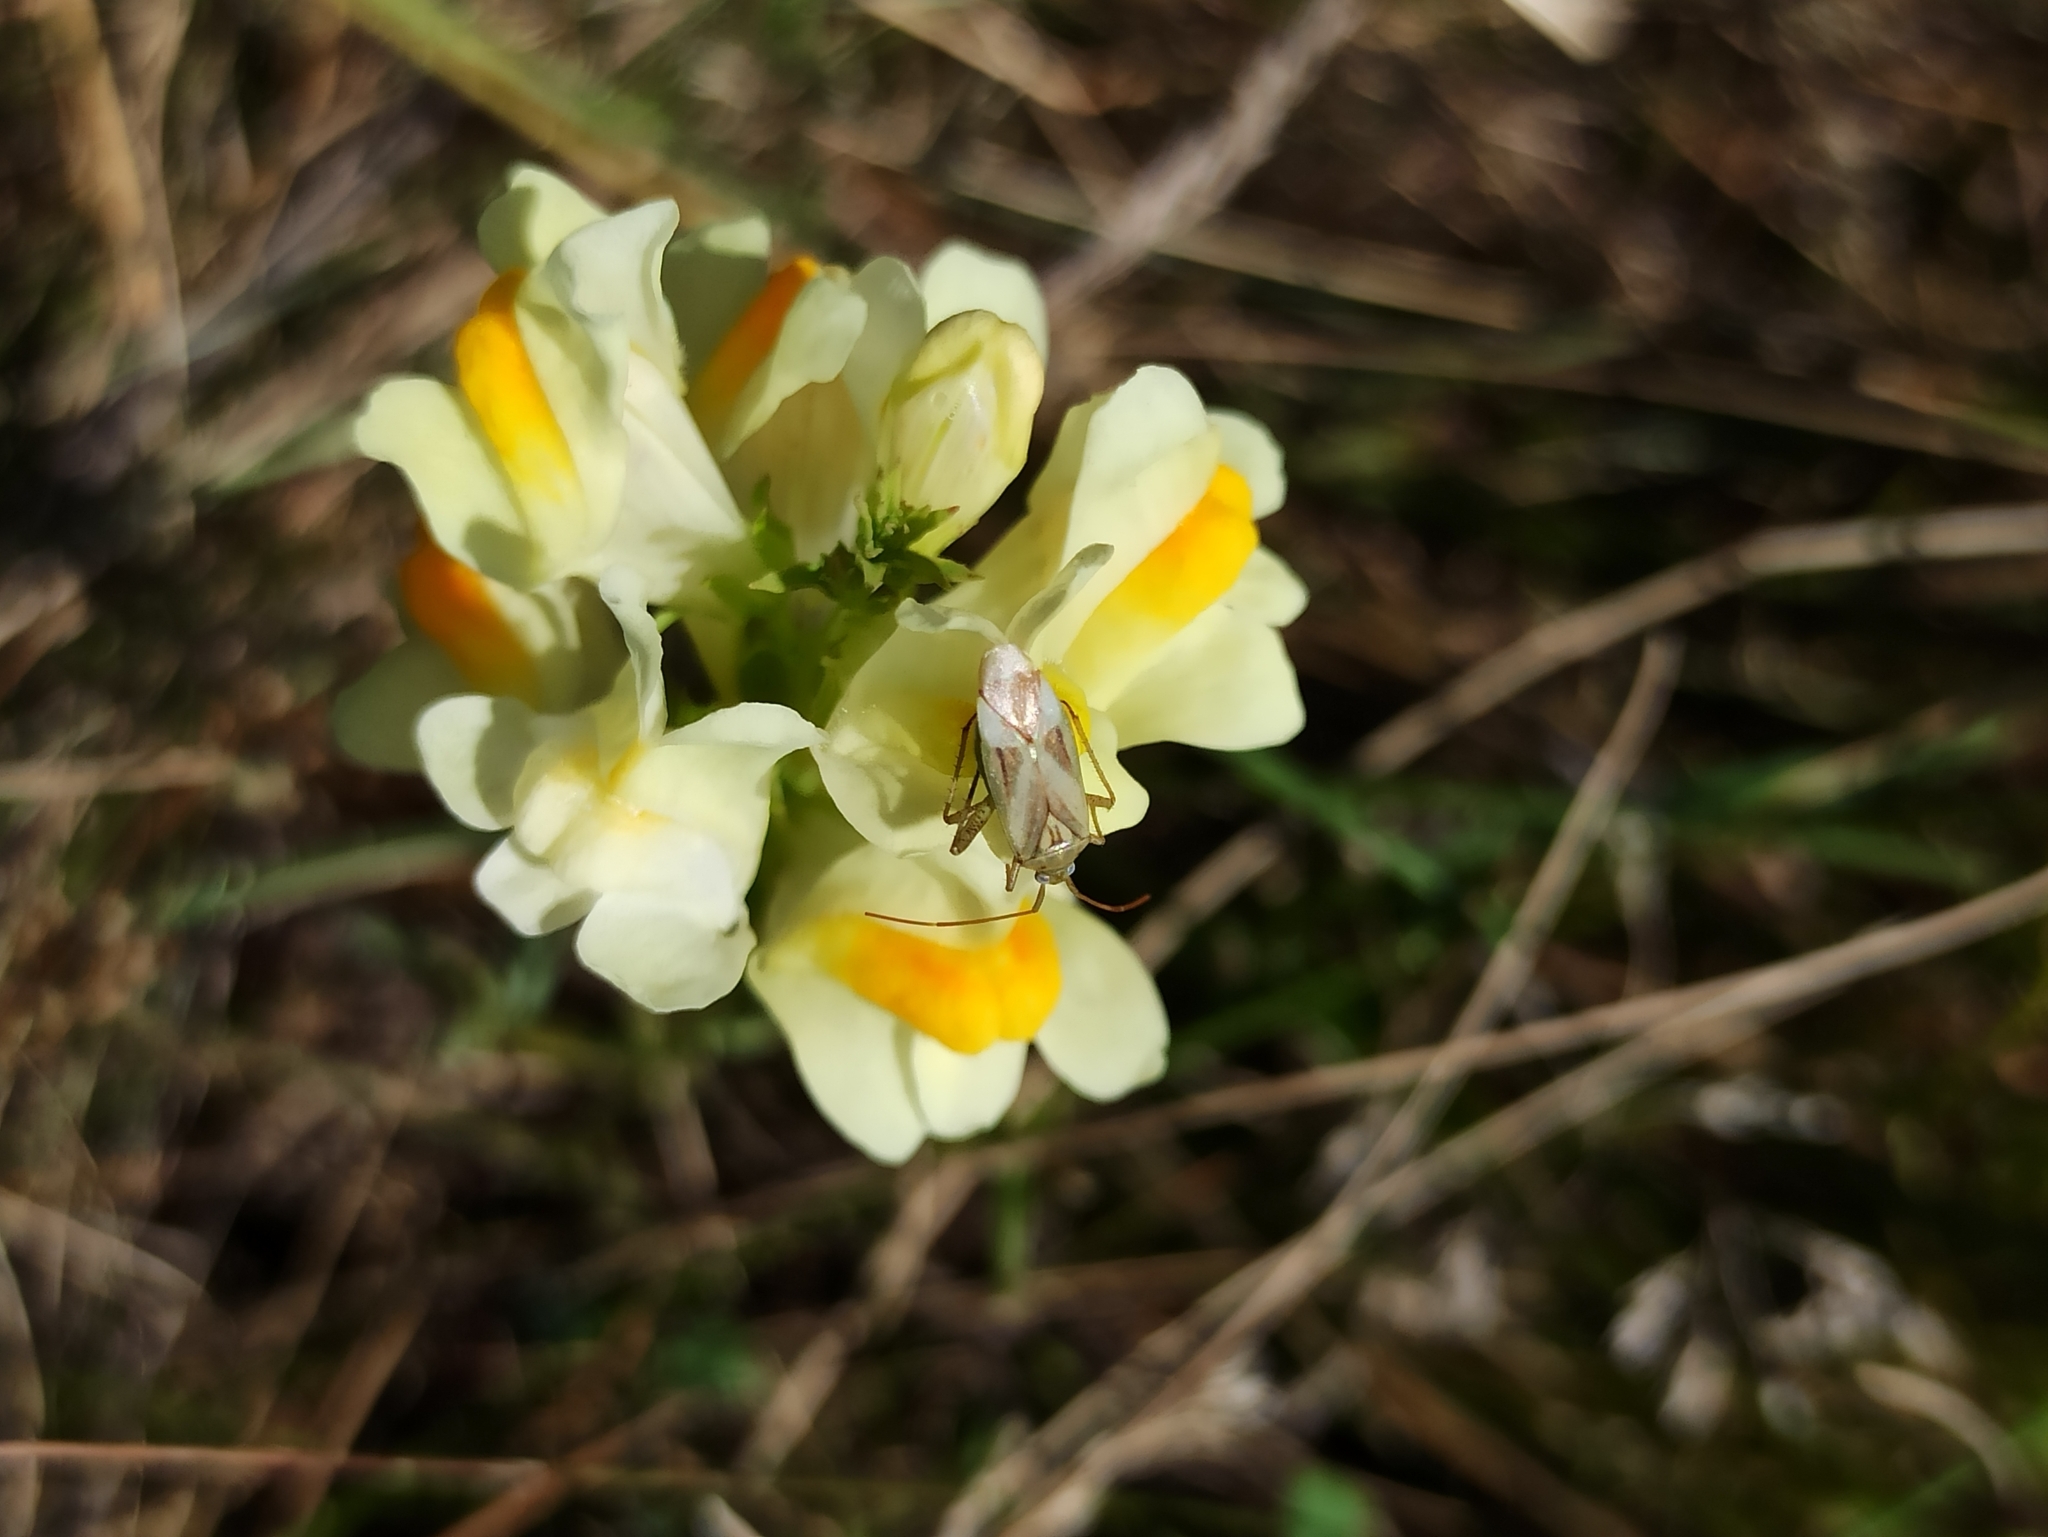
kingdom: Plantae
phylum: Tracheophyta
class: Magnoliopsida
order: Lamiales
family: Plantaginaceae
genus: Linaria
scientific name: Linaria vulgaris
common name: Butter and eggs
